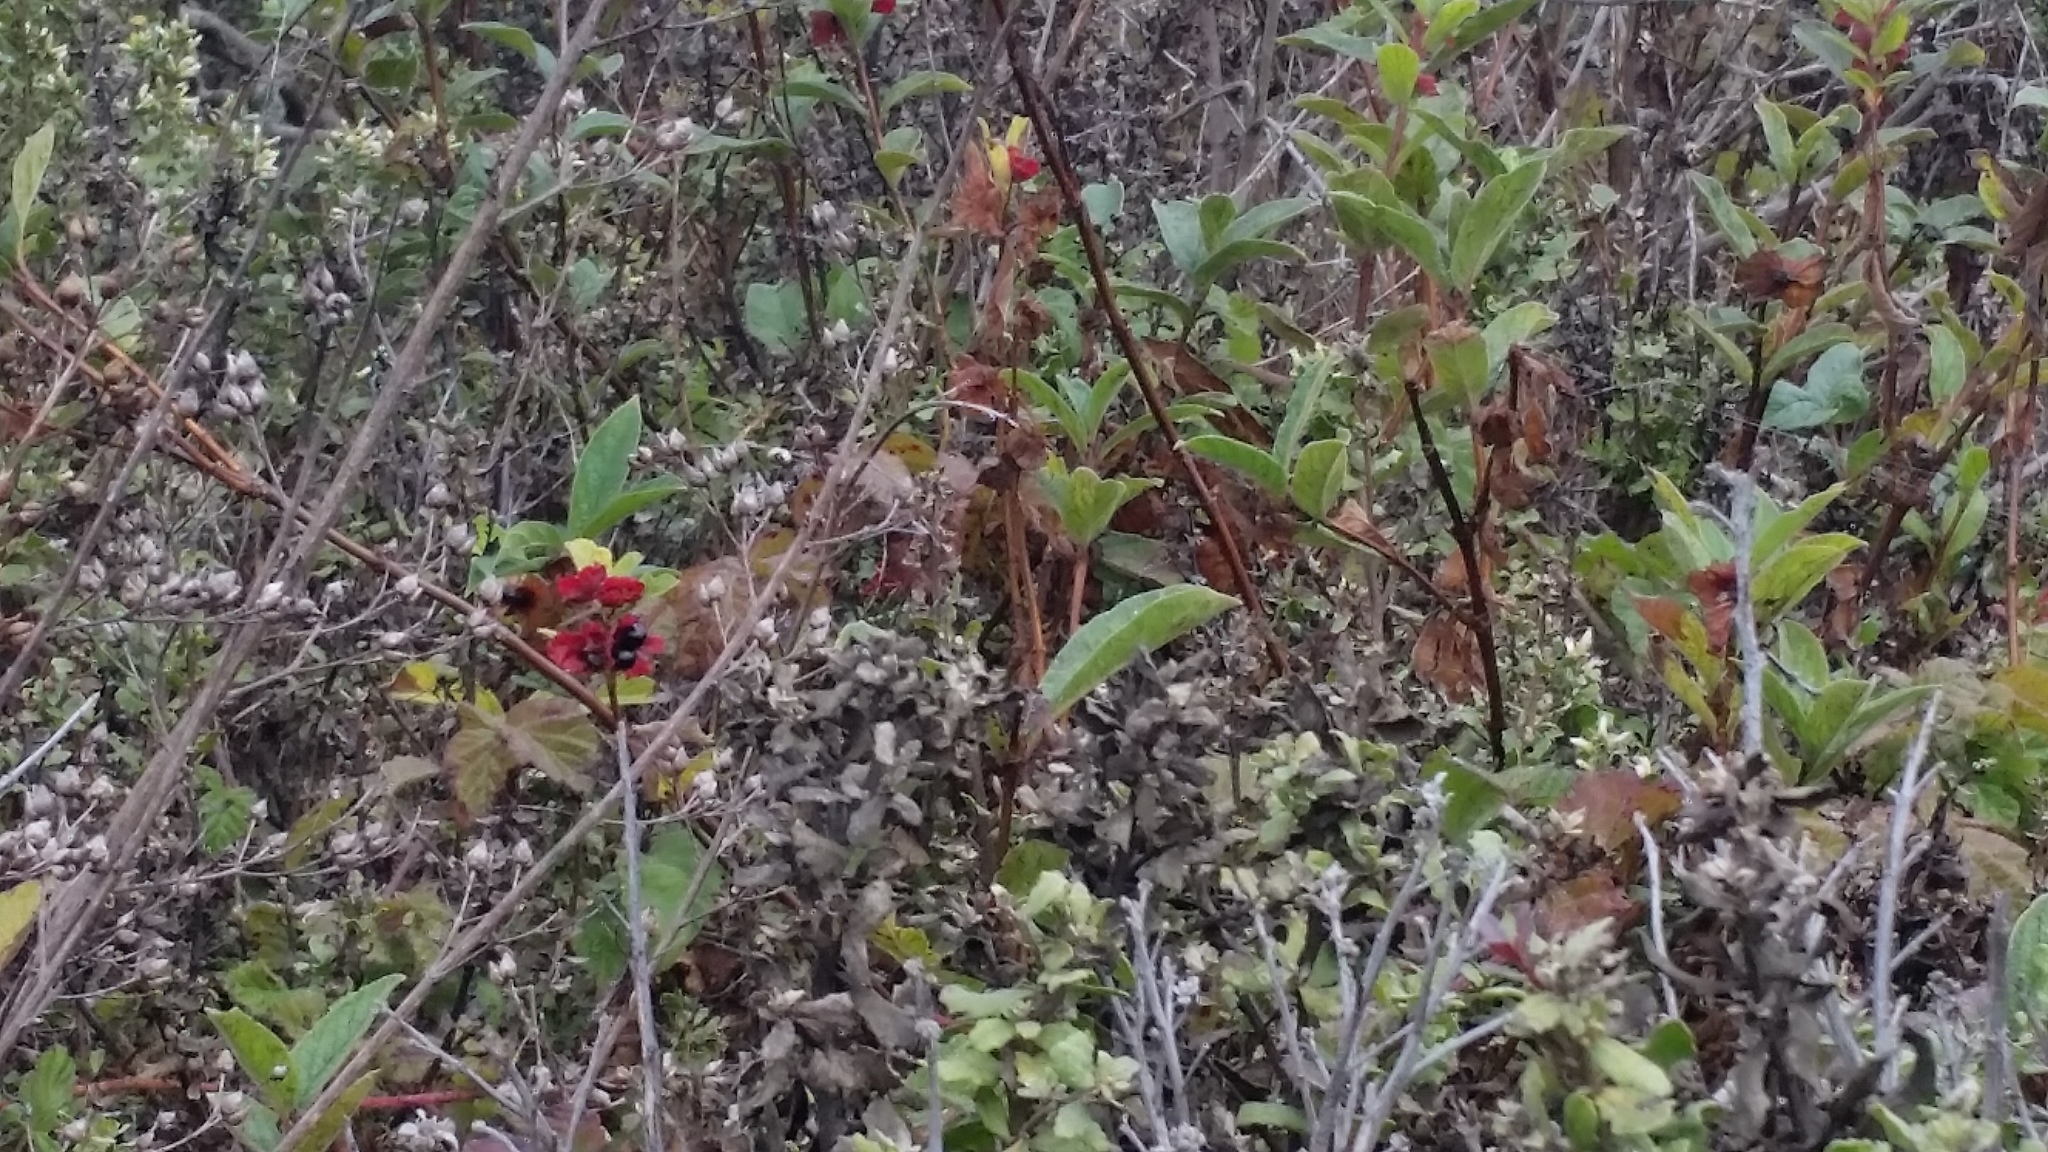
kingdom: Plantae
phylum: Tracheophyta
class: Magnoliopsida
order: Dipsacales
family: Caprifoliaceae
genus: Lonicera
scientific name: Lonicera involucrata
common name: Californian honeysuckle
